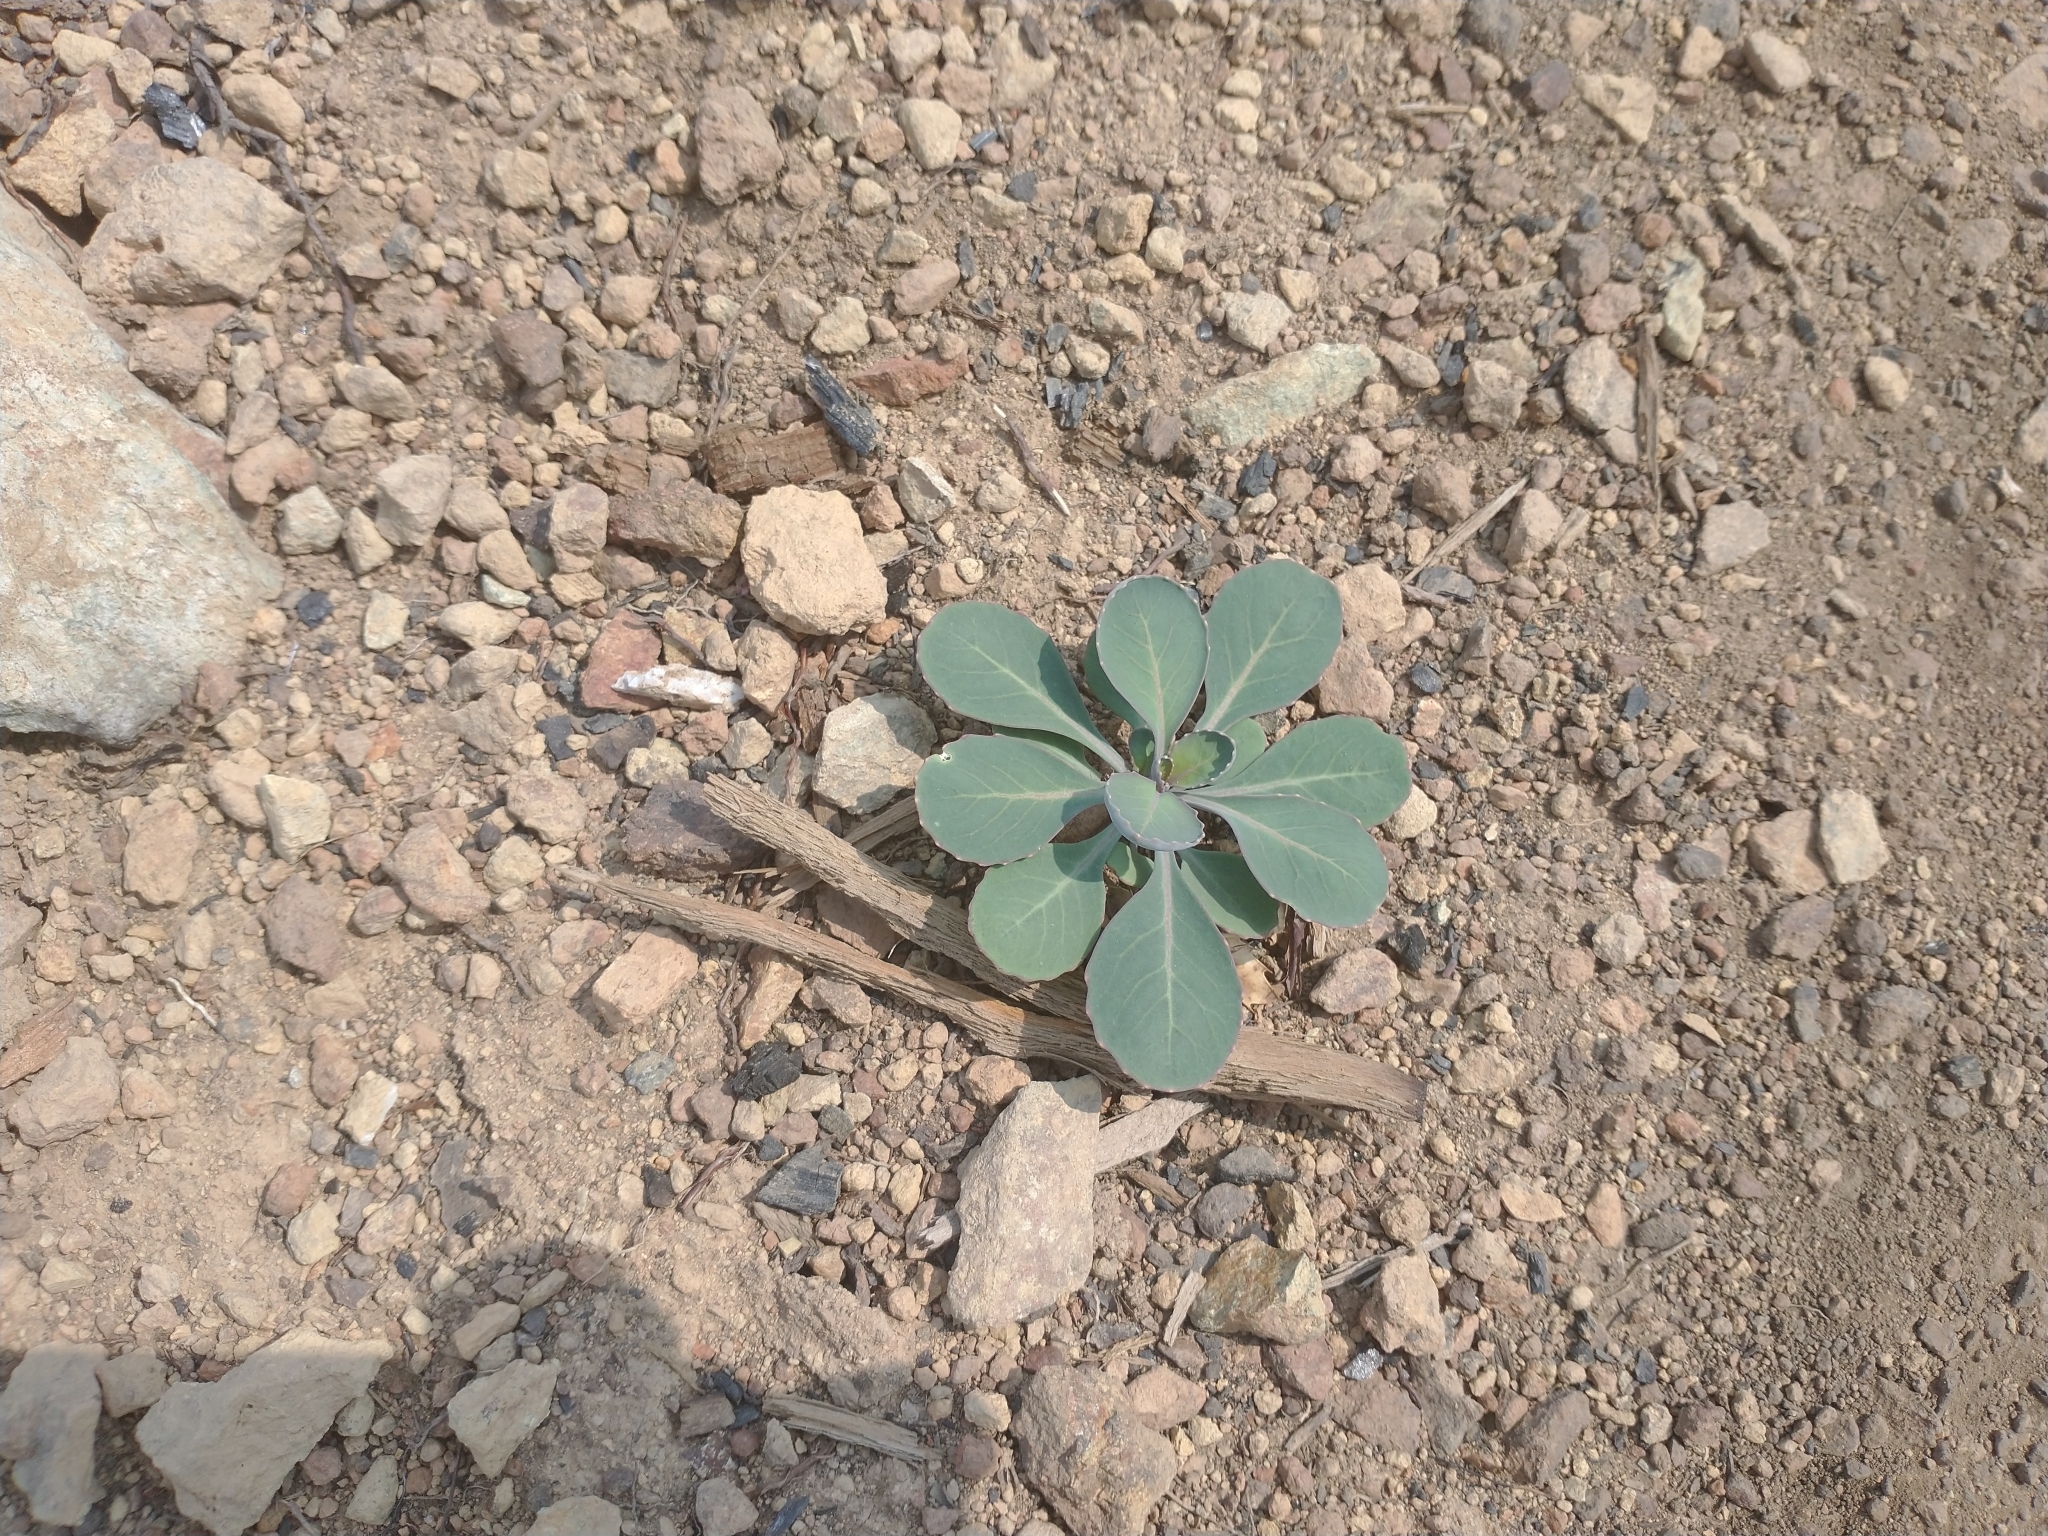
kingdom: Plantae
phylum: Tracheophyta
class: Magnoliopsida
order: Brassicales
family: Brassicaceae
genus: Streptanthus
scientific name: Streptanthus tortuosus
